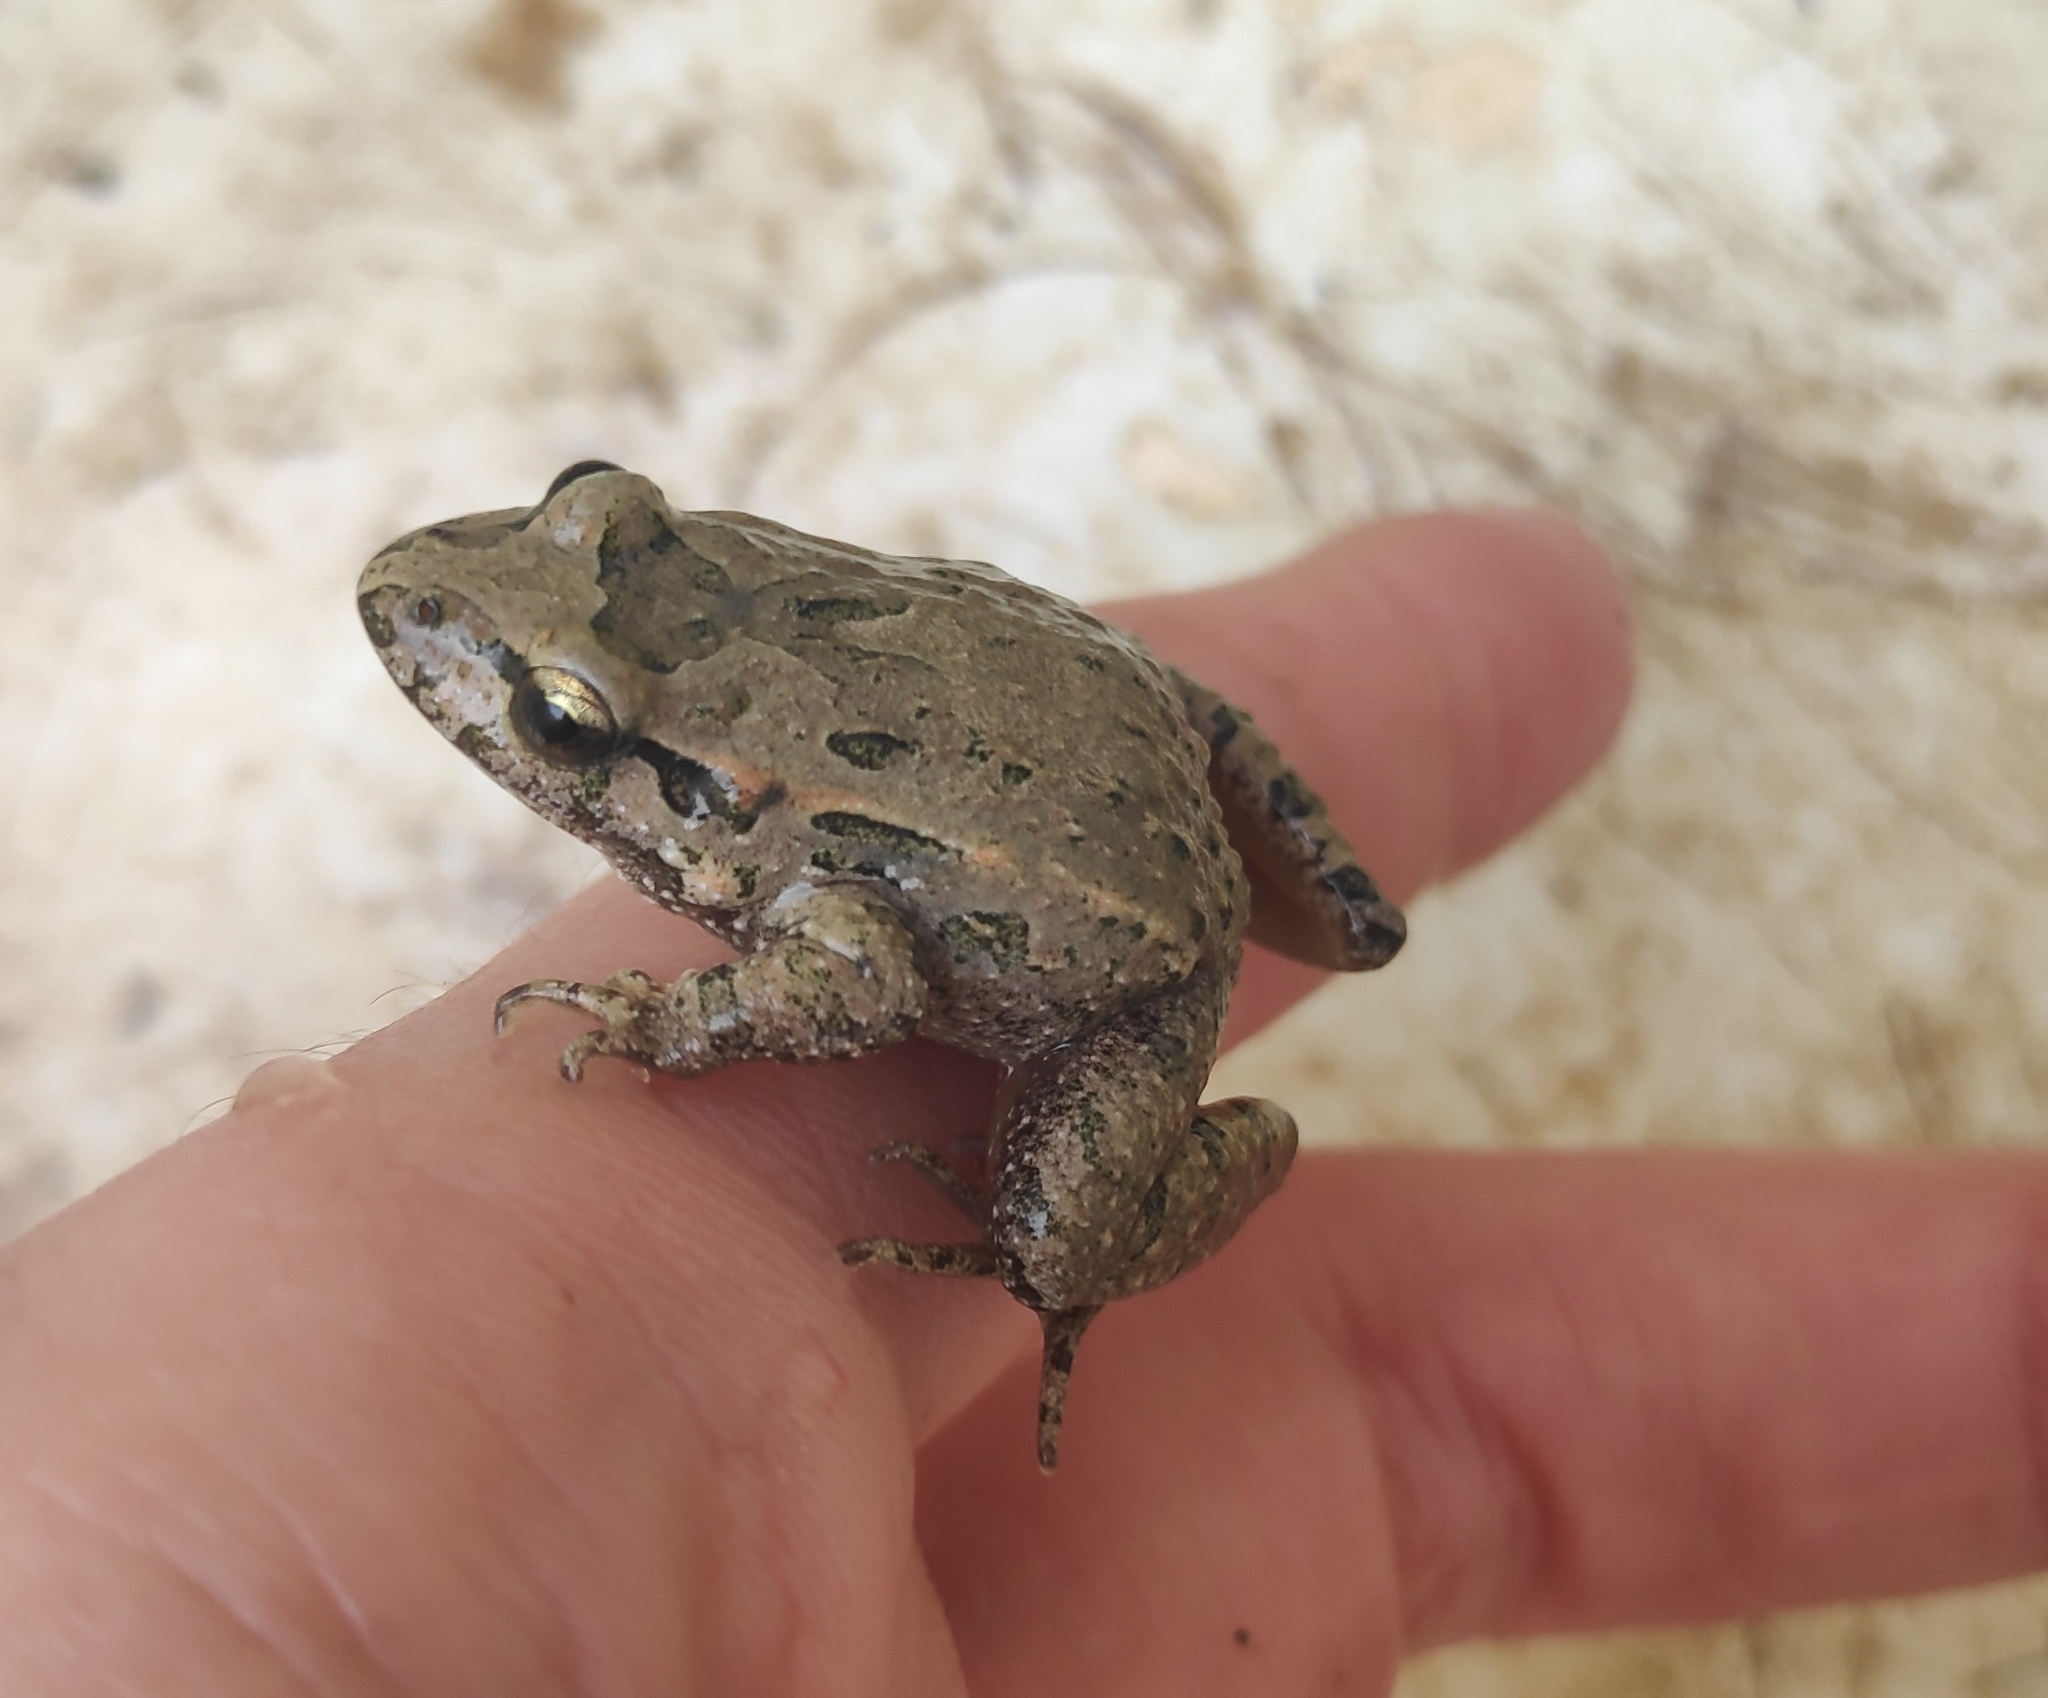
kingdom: Animalia
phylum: Chordata
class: Amphibia
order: Anura
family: Alytidae
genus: Discoglossus
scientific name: Discoglossus jeanneae
